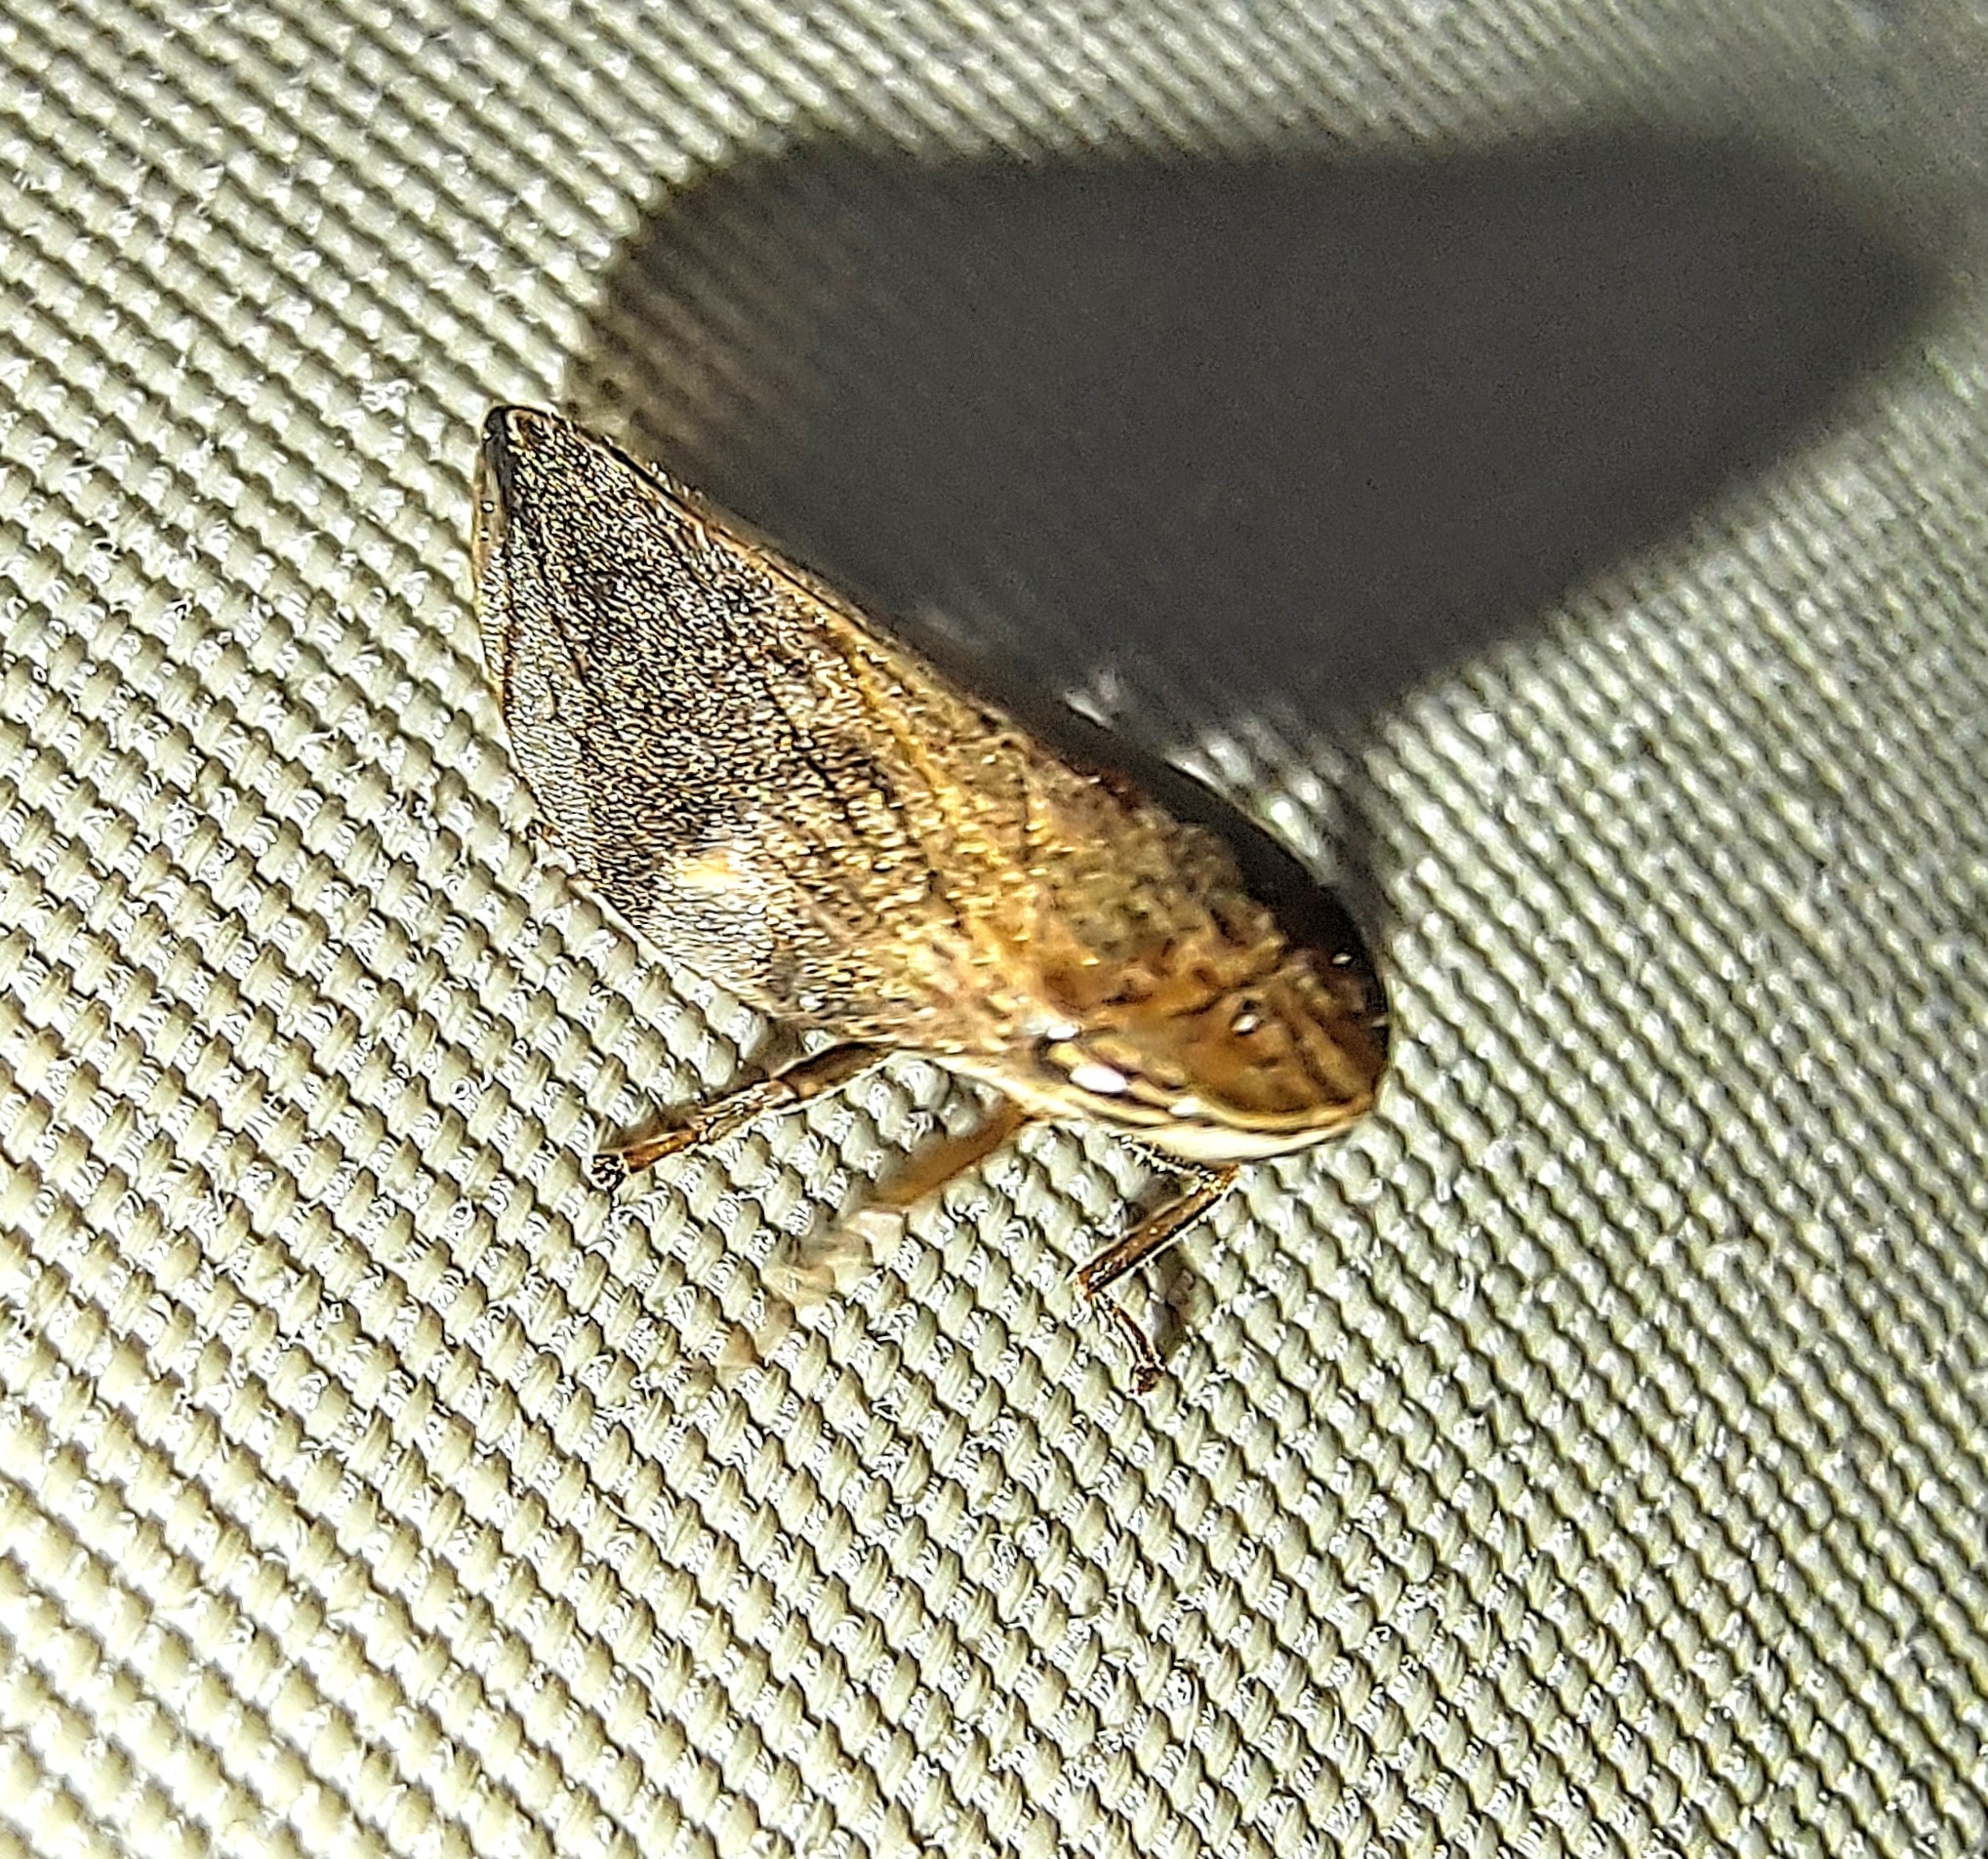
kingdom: Animalia
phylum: Arthropoda
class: Insecta
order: Hemiptera
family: Aphrophoridae
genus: Clovia
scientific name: Clovia conifera
